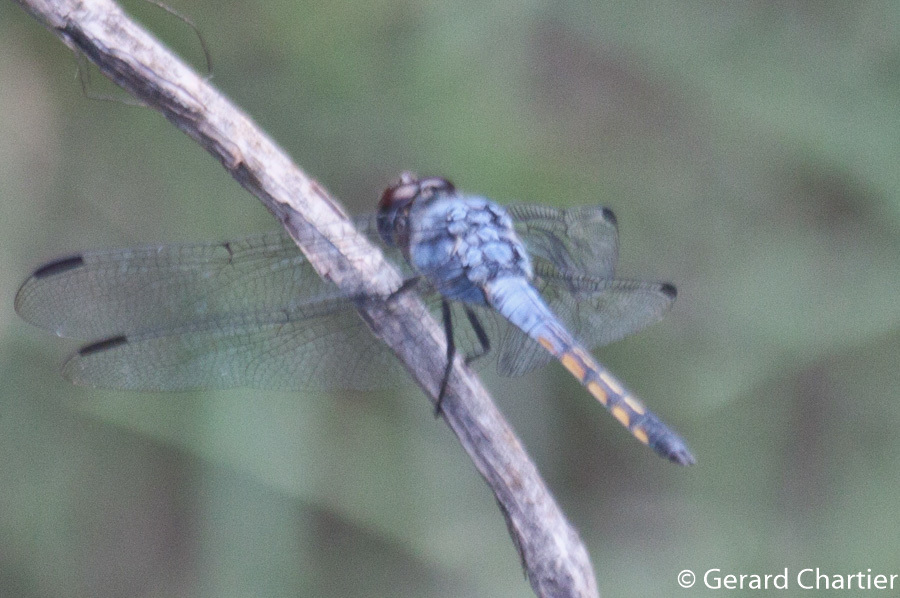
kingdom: Animalia
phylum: Arthropoda
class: Insecta
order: Odonata
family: Libellulidae
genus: Potamarcha
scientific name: Potamarcha congener
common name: Blue chaser
